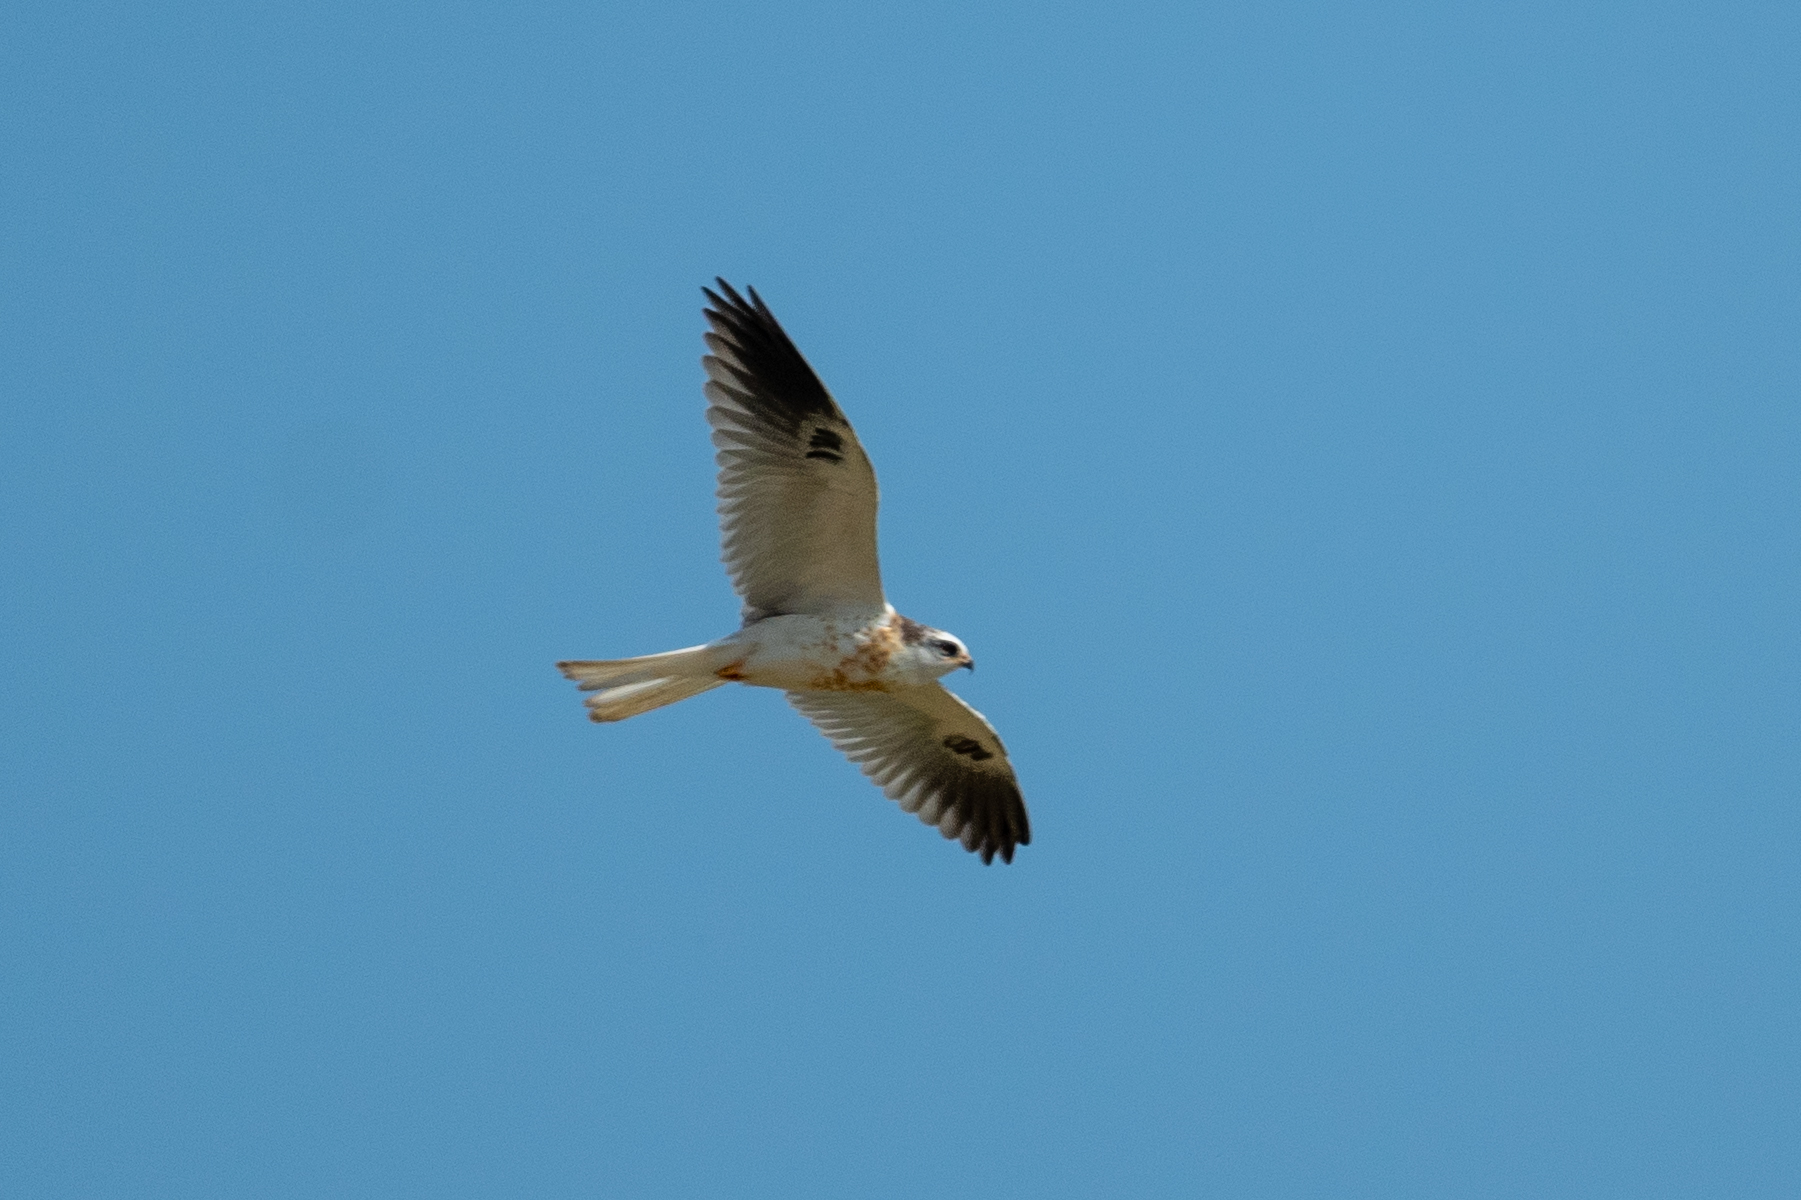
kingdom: Animalia
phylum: Chordata
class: Aves
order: Accipitriformes
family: Accipitridae
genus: Elanus
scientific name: Elanus leucurus
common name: White-tailed kite
